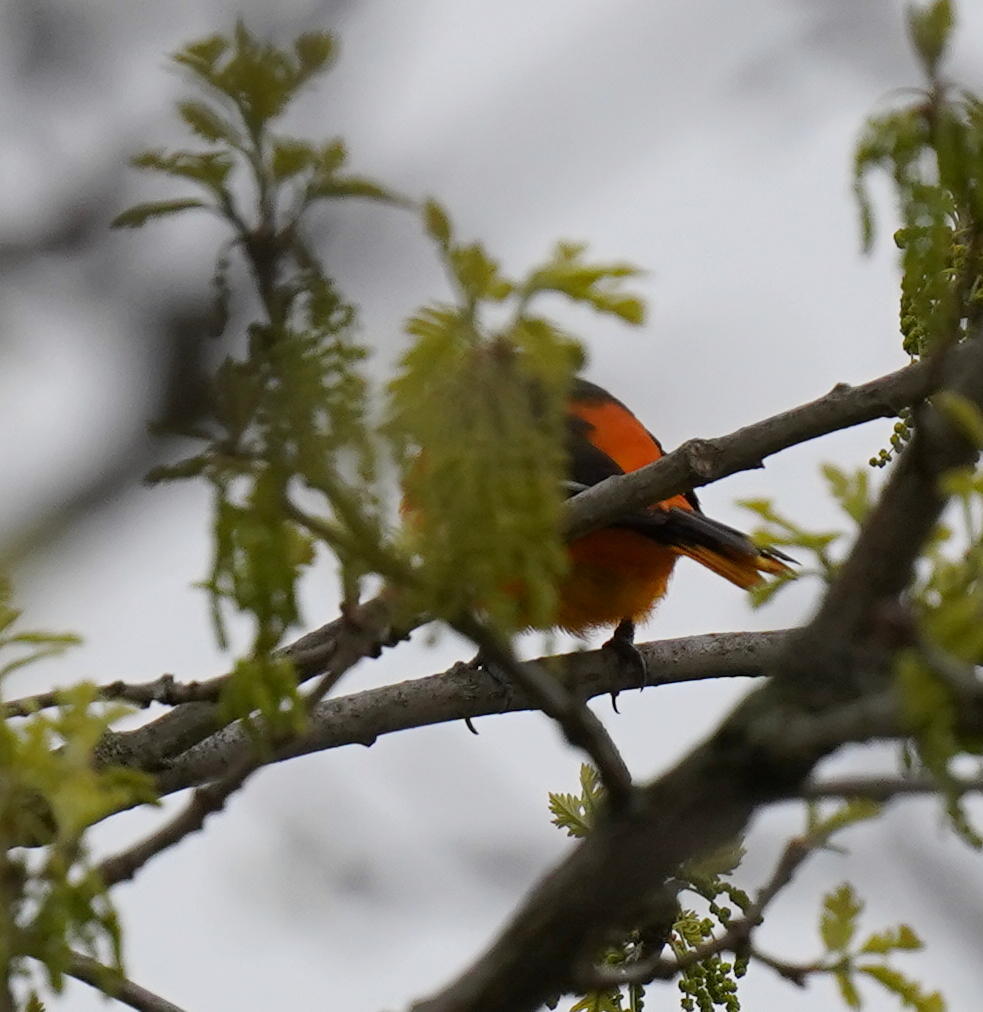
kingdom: Animalia
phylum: Chordata
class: Aves
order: Passeriformes
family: Icteridae
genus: Icterus
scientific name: Icterus galbula
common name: Baltimore oriole
